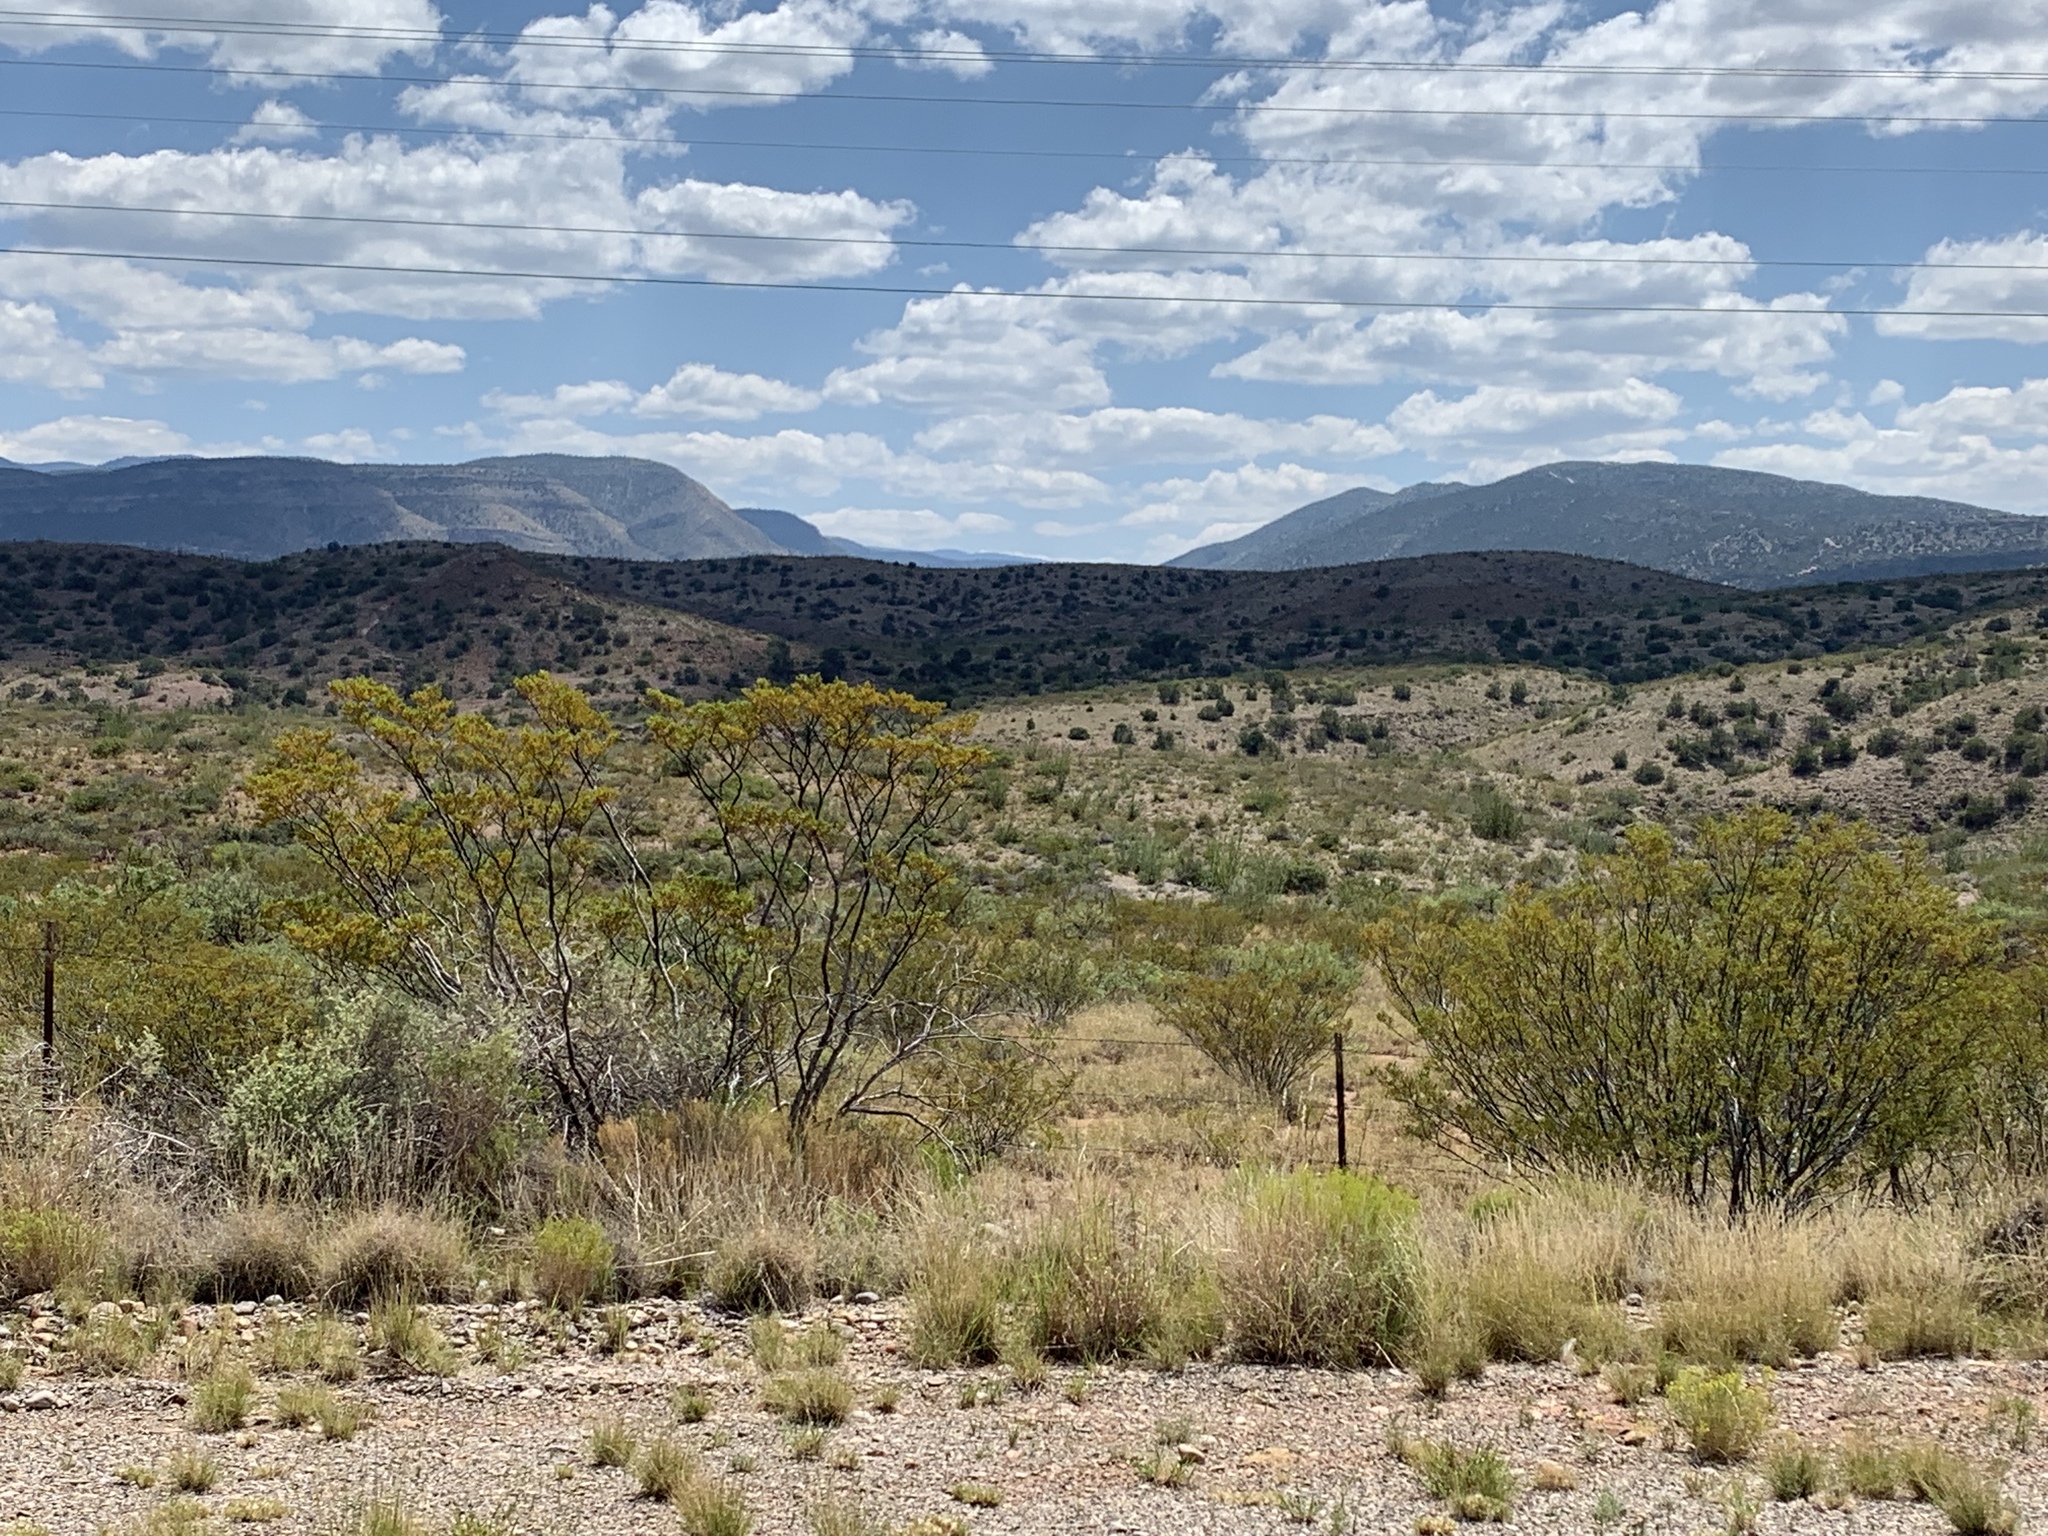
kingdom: Plantae
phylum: Tracheophyta
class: Magnoliopsida
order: Zygophyllales
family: Zygophyllaceae
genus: Larrea
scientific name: Larrea tridentata
